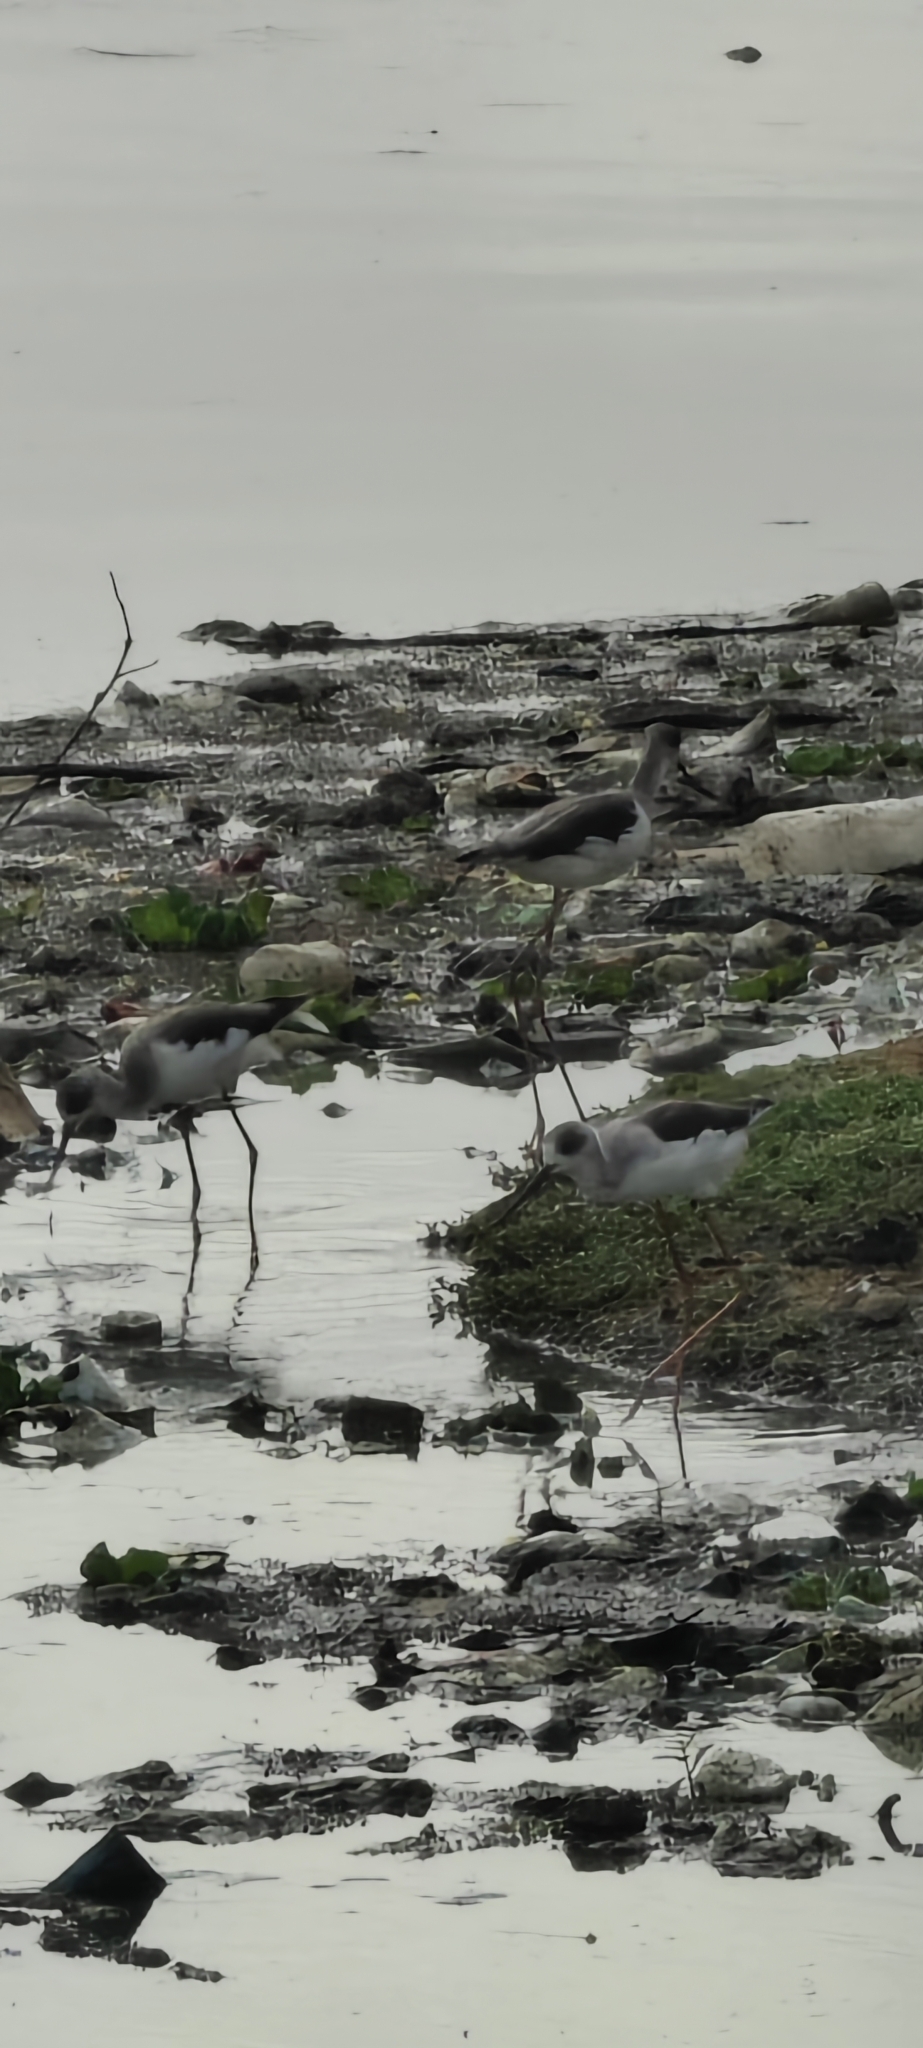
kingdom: Animalia
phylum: Chordata
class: Aves
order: Charadriiformes
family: Recurvirostridae
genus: Himantopus
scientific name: Himantopus himantopus
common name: Black-winged stilt
